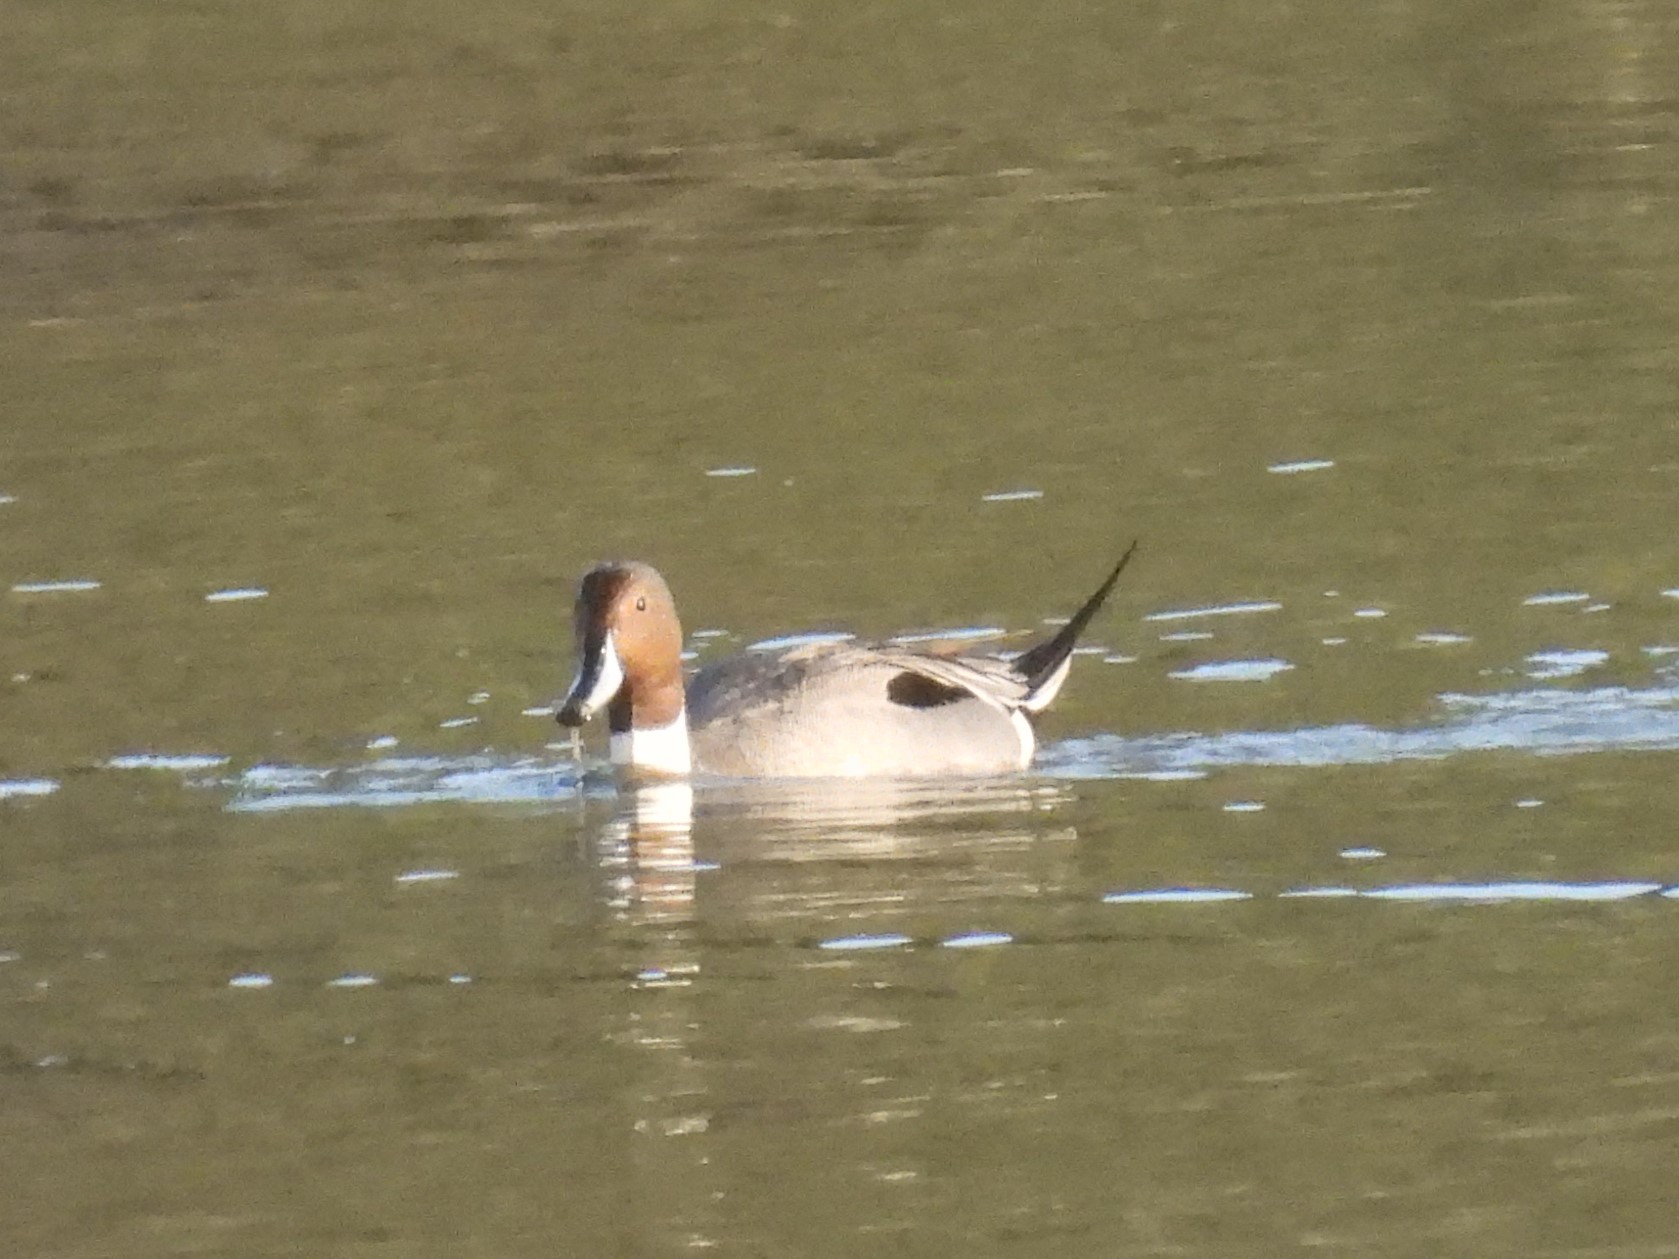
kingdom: Animalia
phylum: Chordata
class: Aves
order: Anseriformes
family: Anatidae
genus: Anas
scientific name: Anas acuta
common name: Northern pintail
